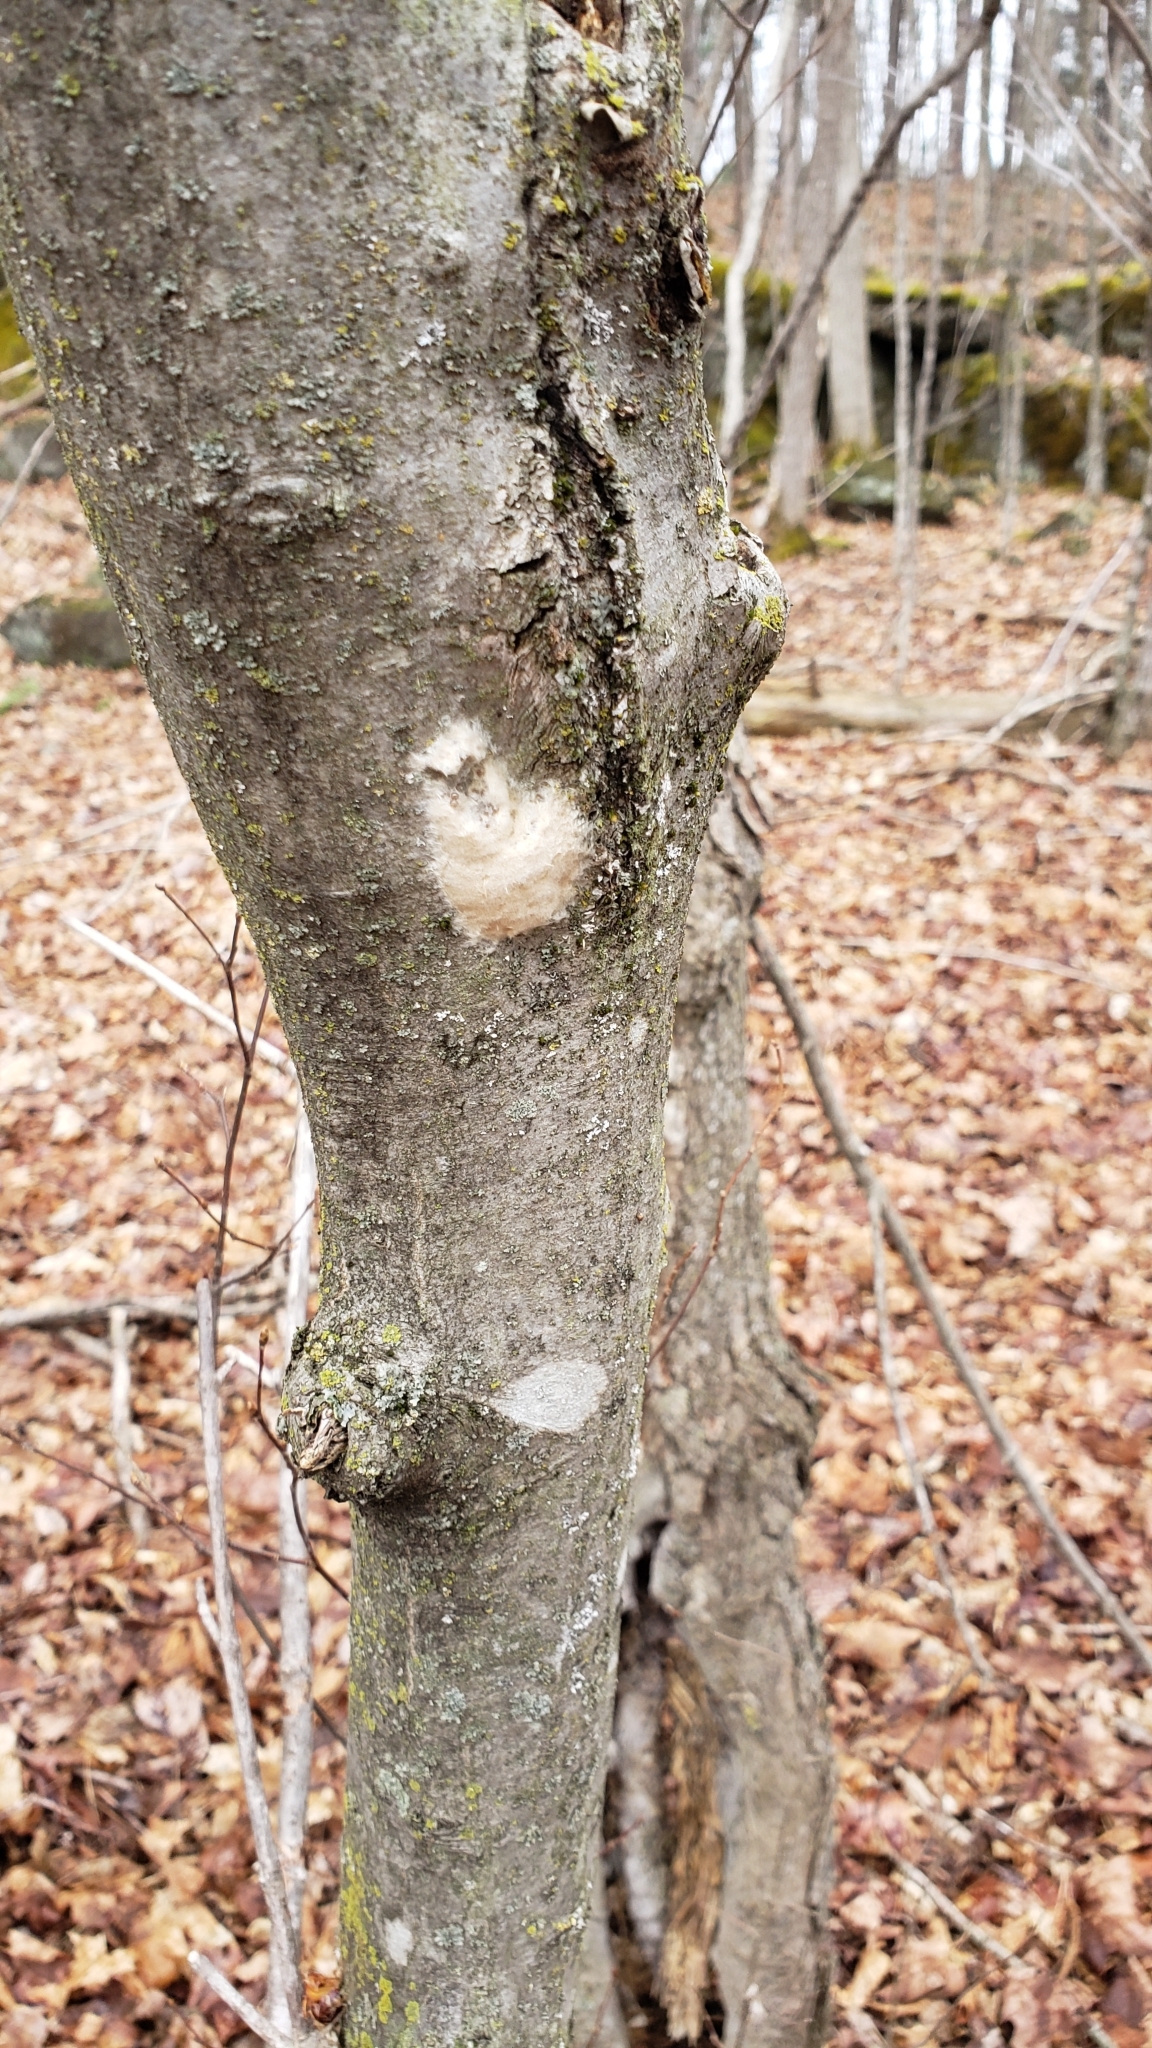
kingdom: Animalia
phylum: Arthropoda
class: Insecta
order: Lepidoptera
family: Erebidae
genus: Lymantria
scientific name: Lymantria dispar
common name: Gypsy moth
